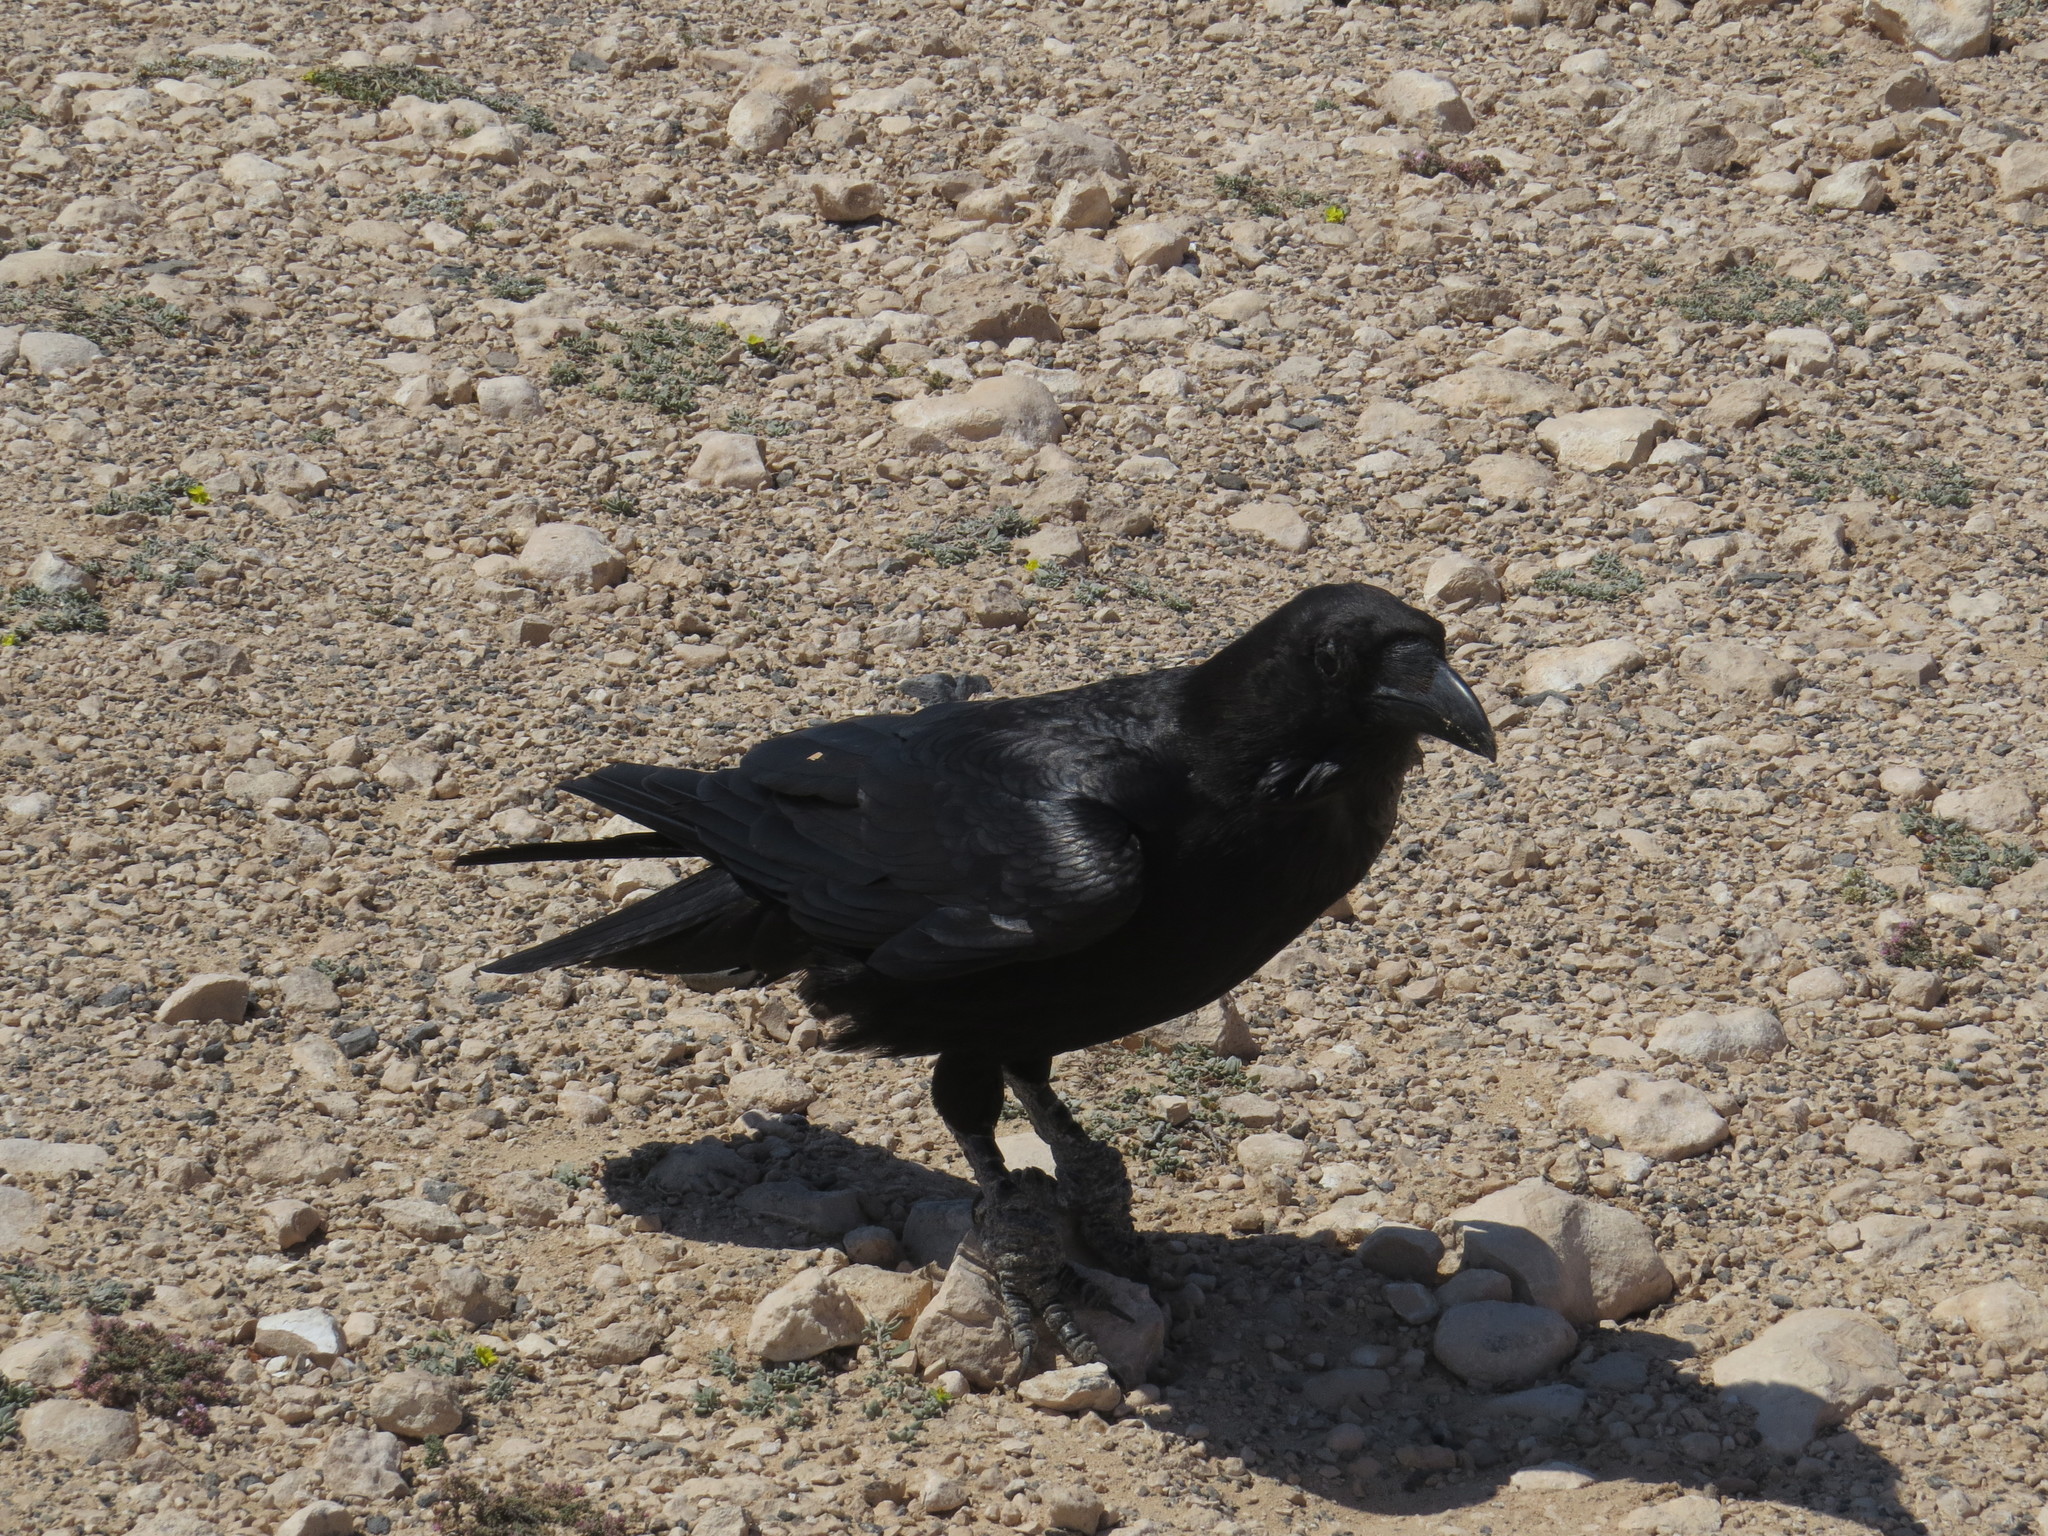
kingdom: Animalia
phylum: Chordata
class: Aves
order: Passeriformes
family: Corvidae
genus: Corvus
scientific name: Corvus corax
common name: Common raven
